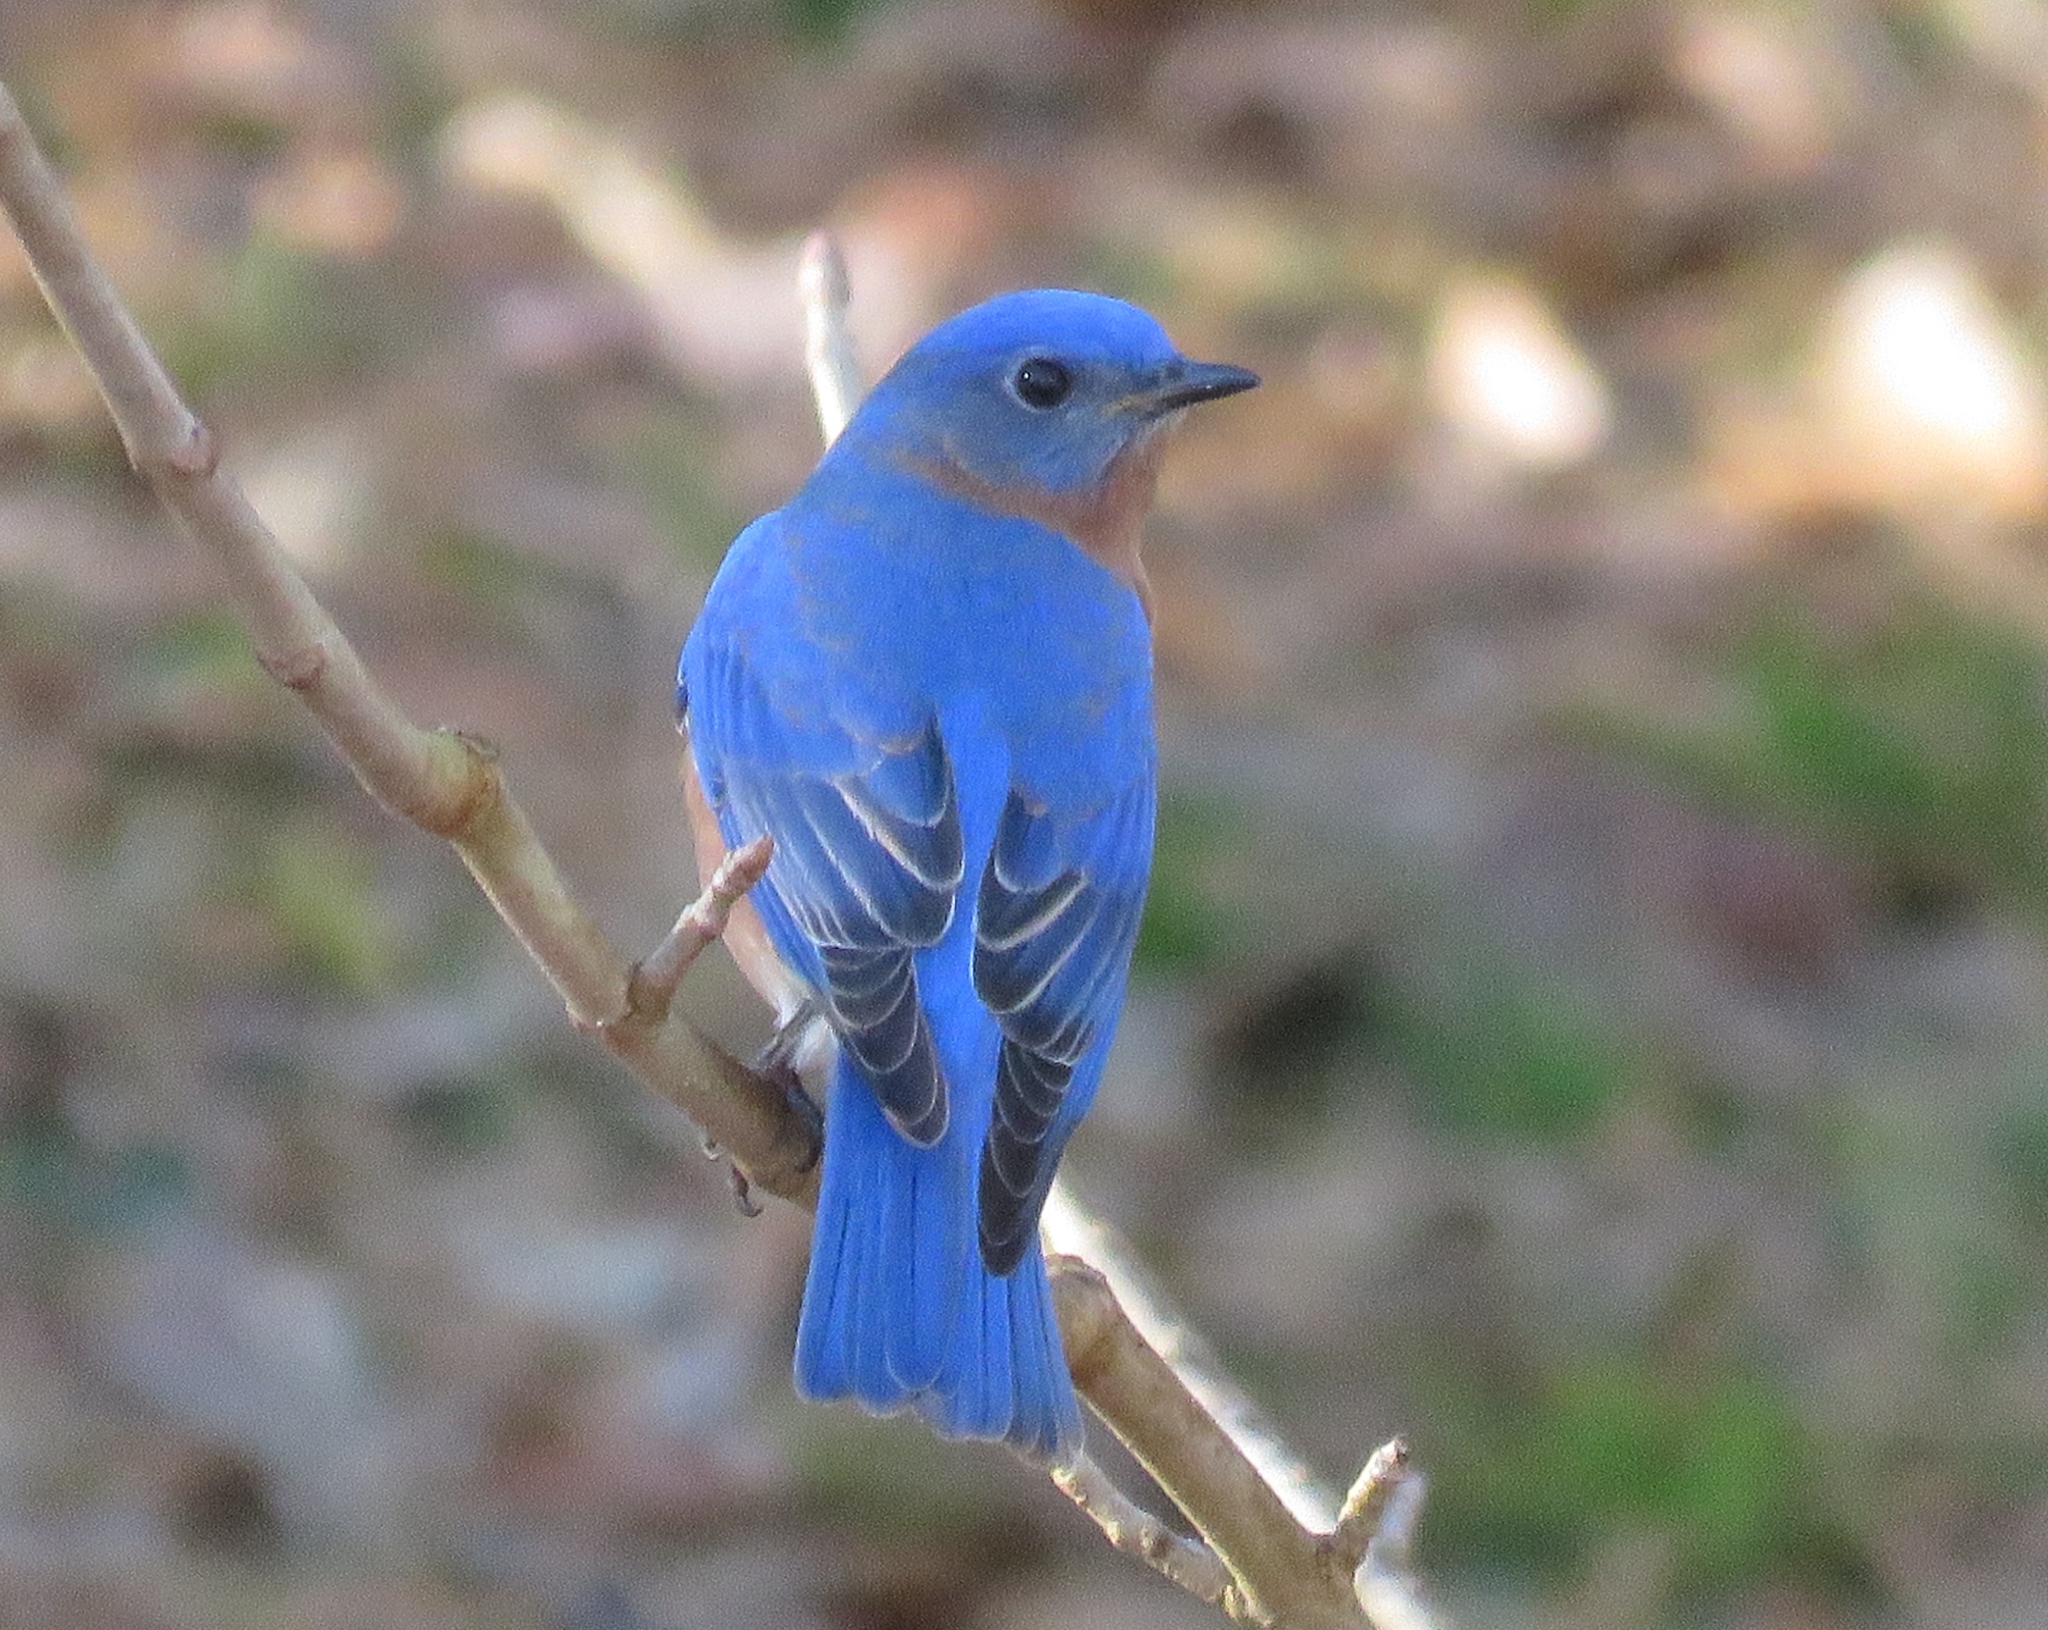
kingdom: Animalia
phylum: Chordata
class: Aves
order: Passeriformes
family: Turdidae
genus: Sialia
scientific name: Sialia sialis
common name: Eastern bluebird
